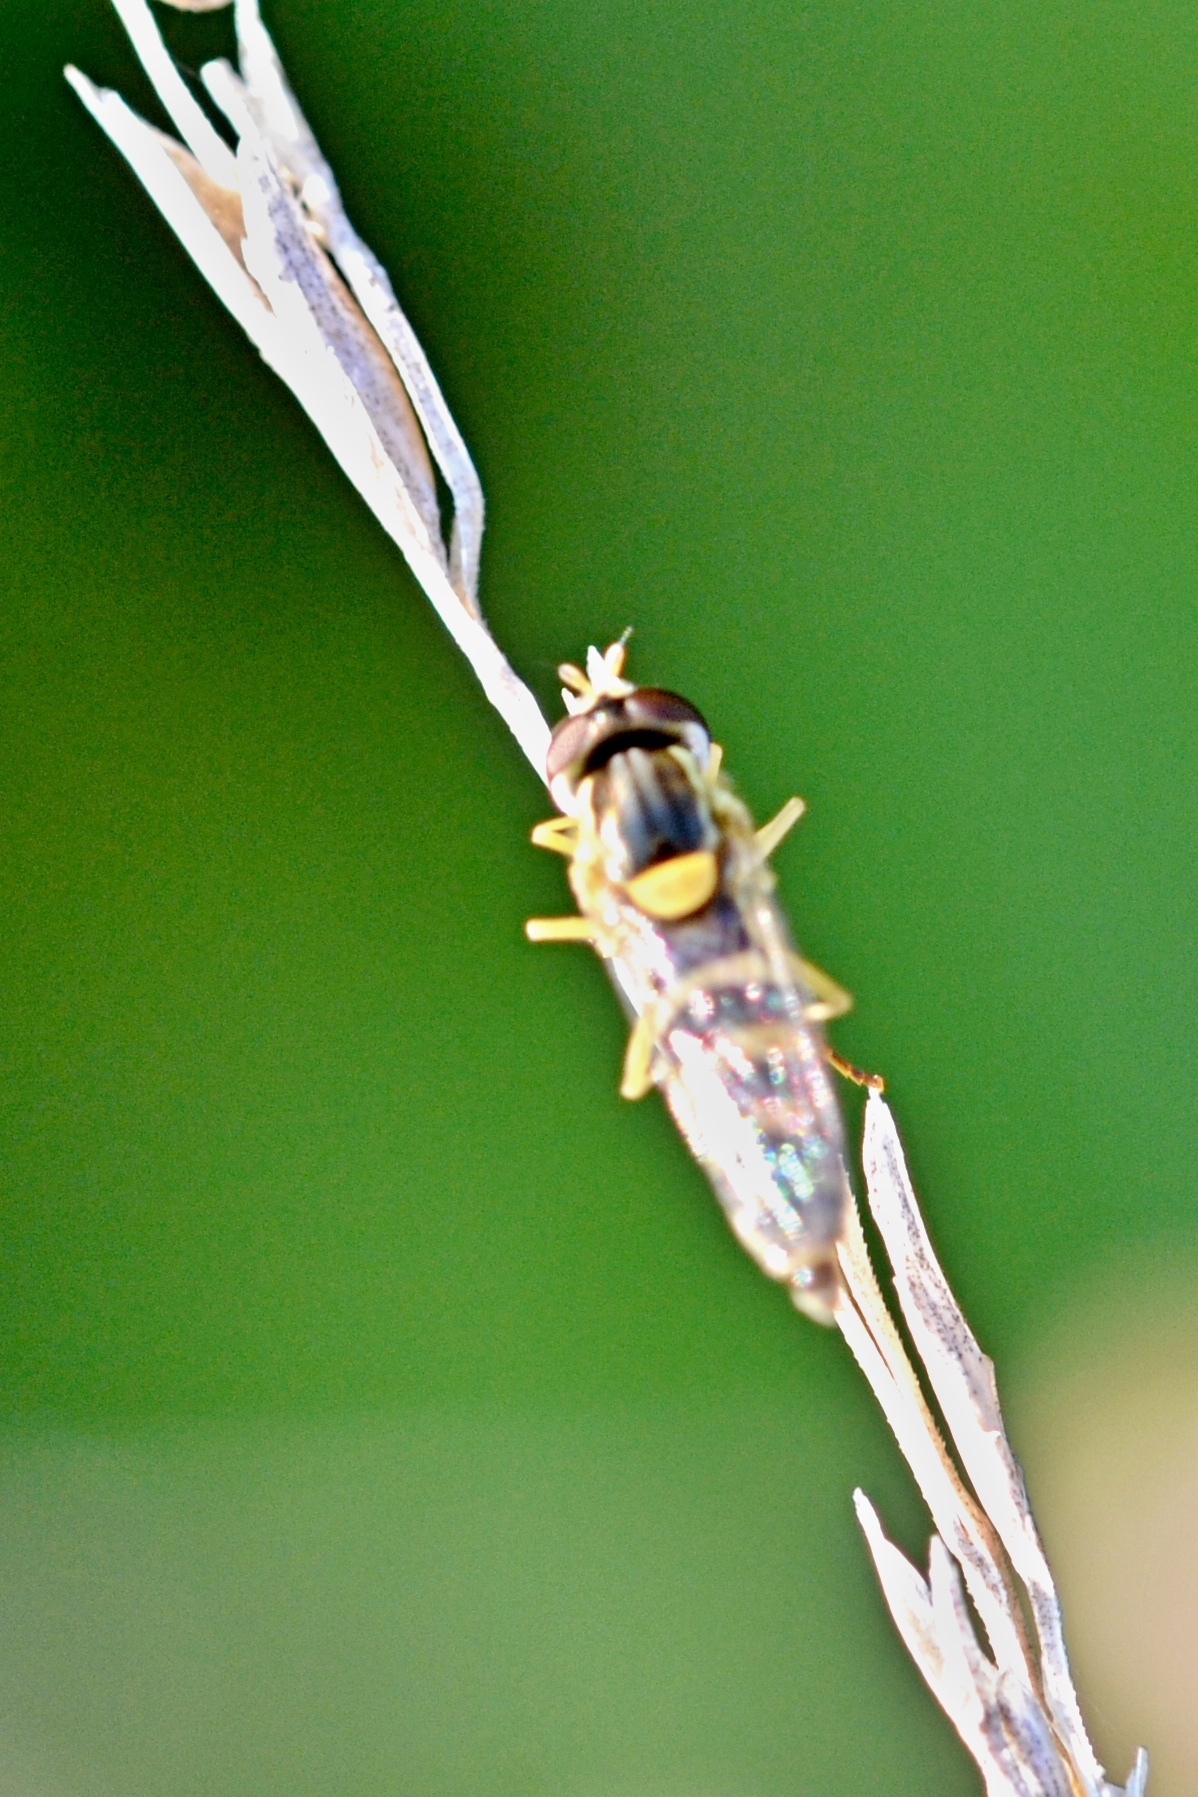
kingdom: Animalia
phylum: Arthropoda
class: Insecta
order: Diptera
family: Syrphidae
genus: Sphaerophoria
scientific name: Sphaerophoria
